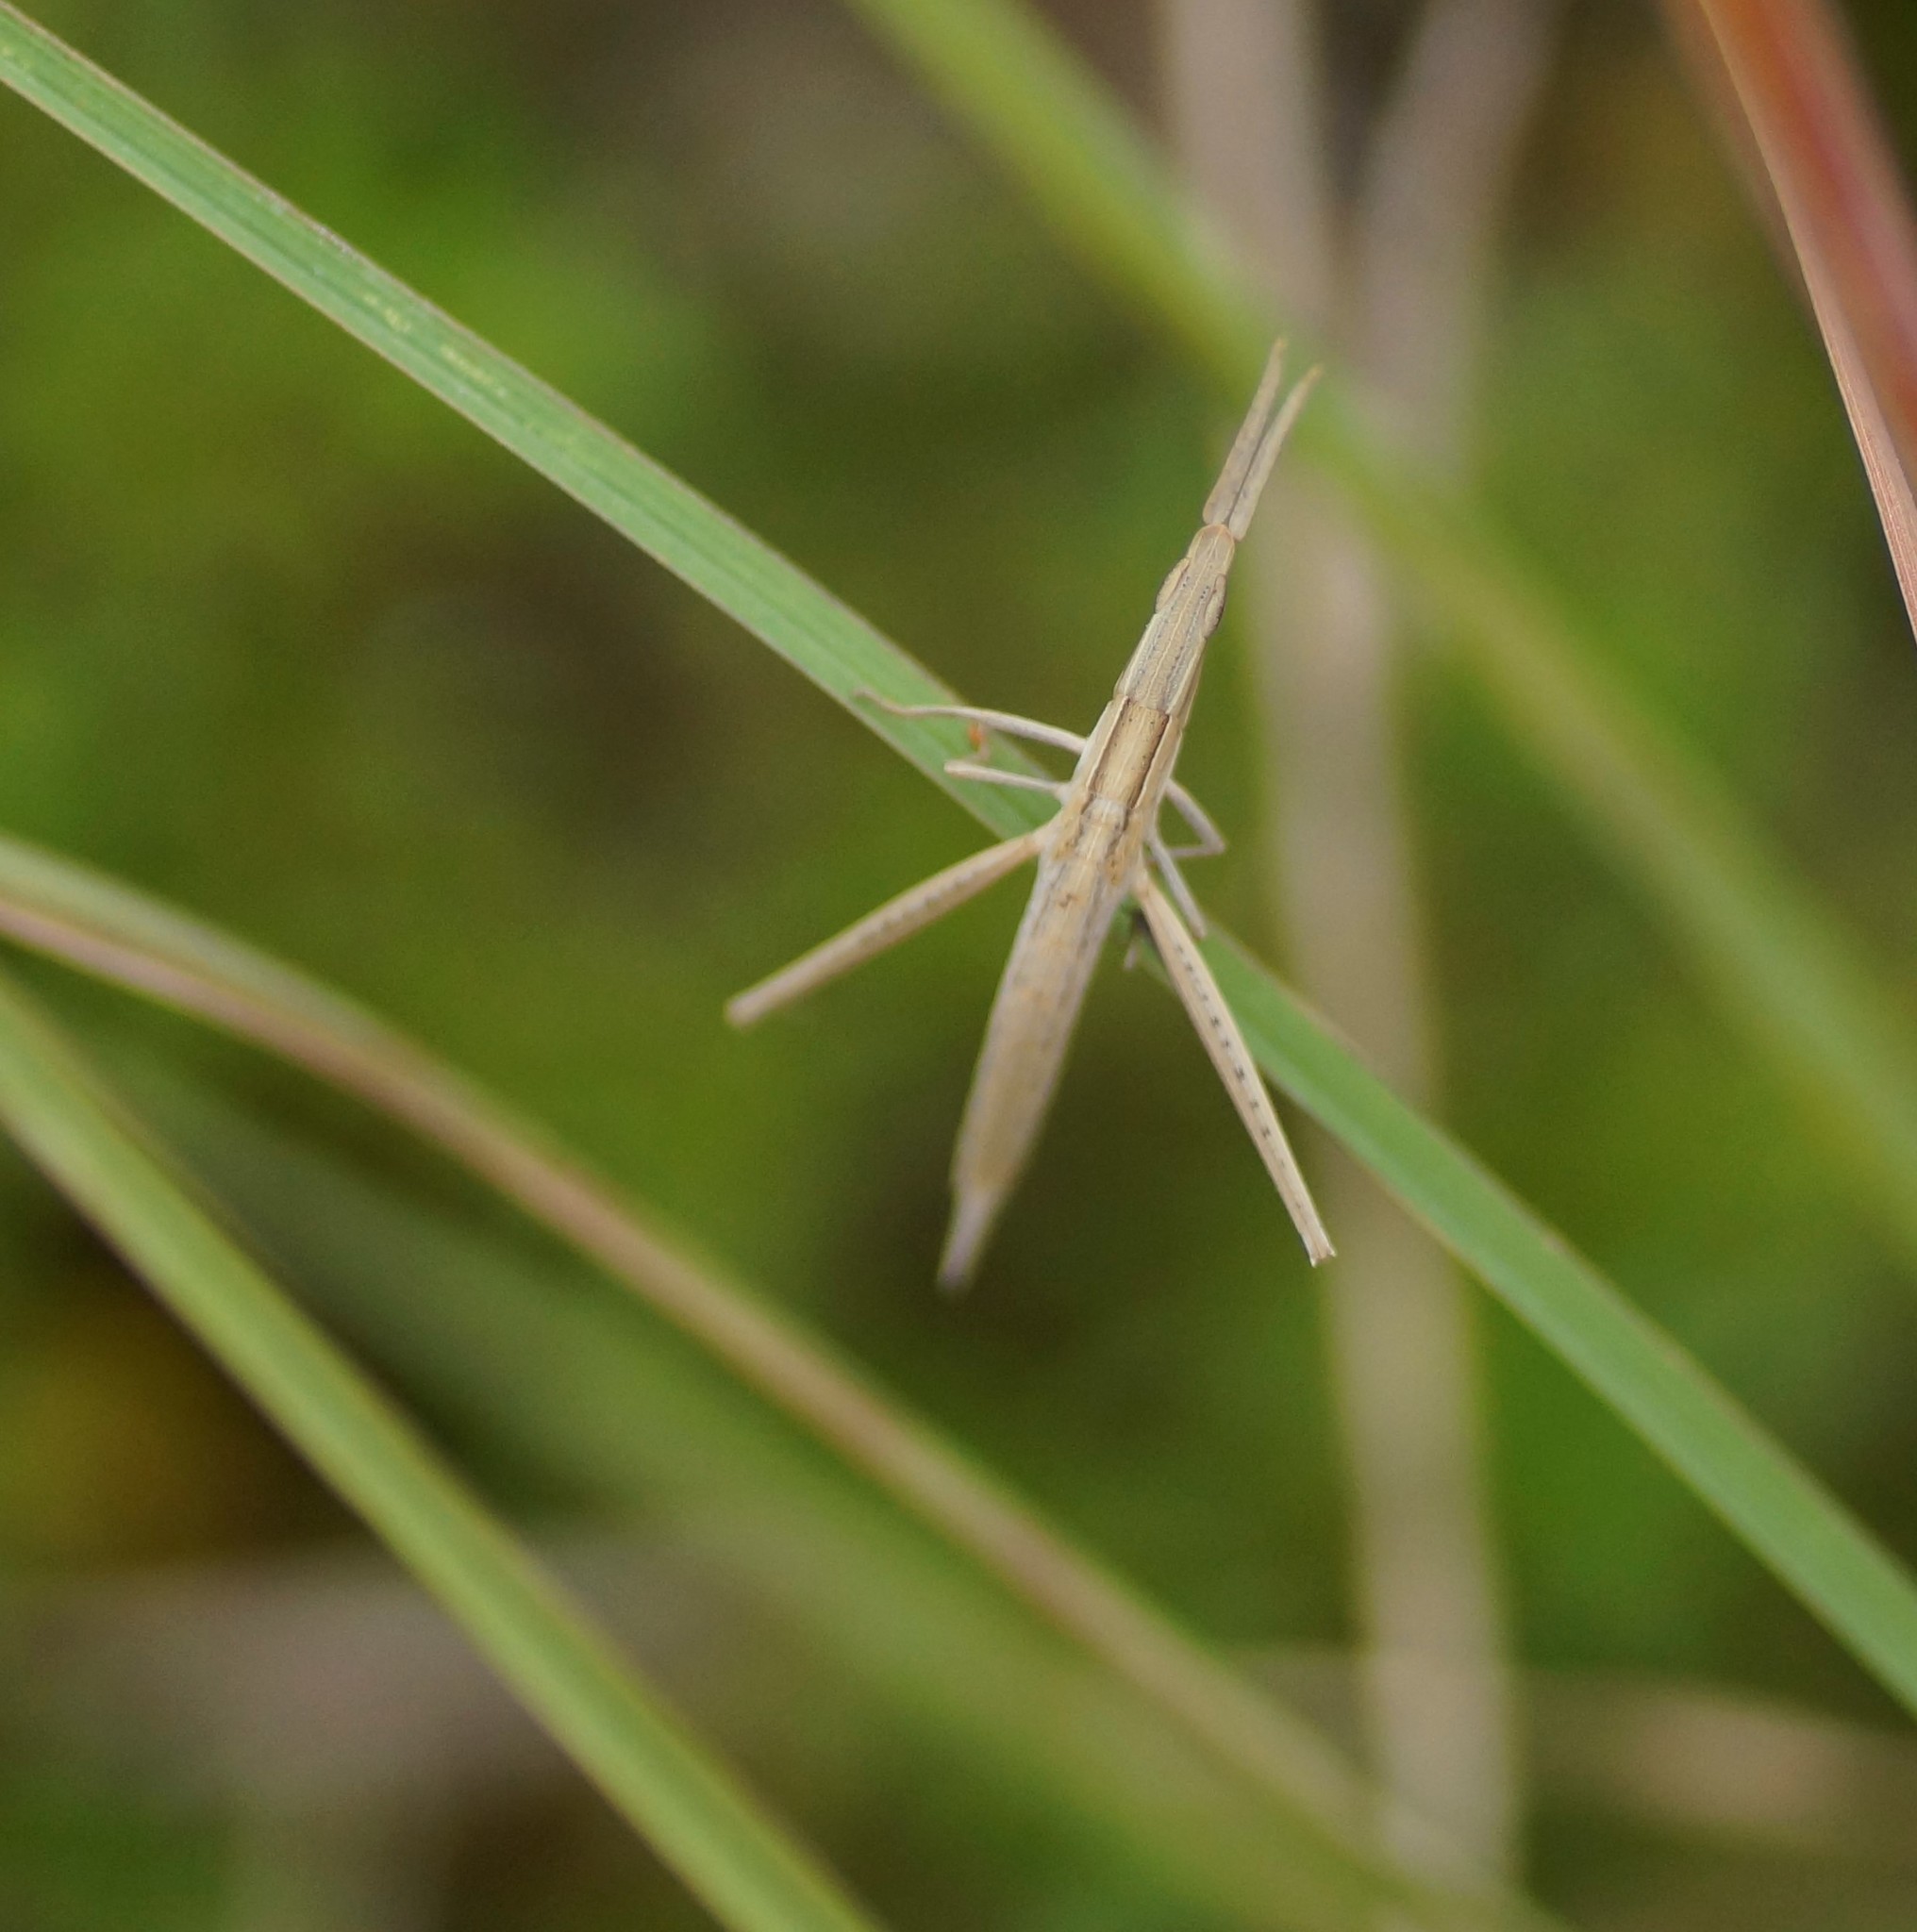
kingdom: Animalia
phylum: Arthropoda
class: Insecta
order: Orthoptera
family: Acrididae
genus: Acrida
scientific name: Acrida conica
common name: Giant green slantface
